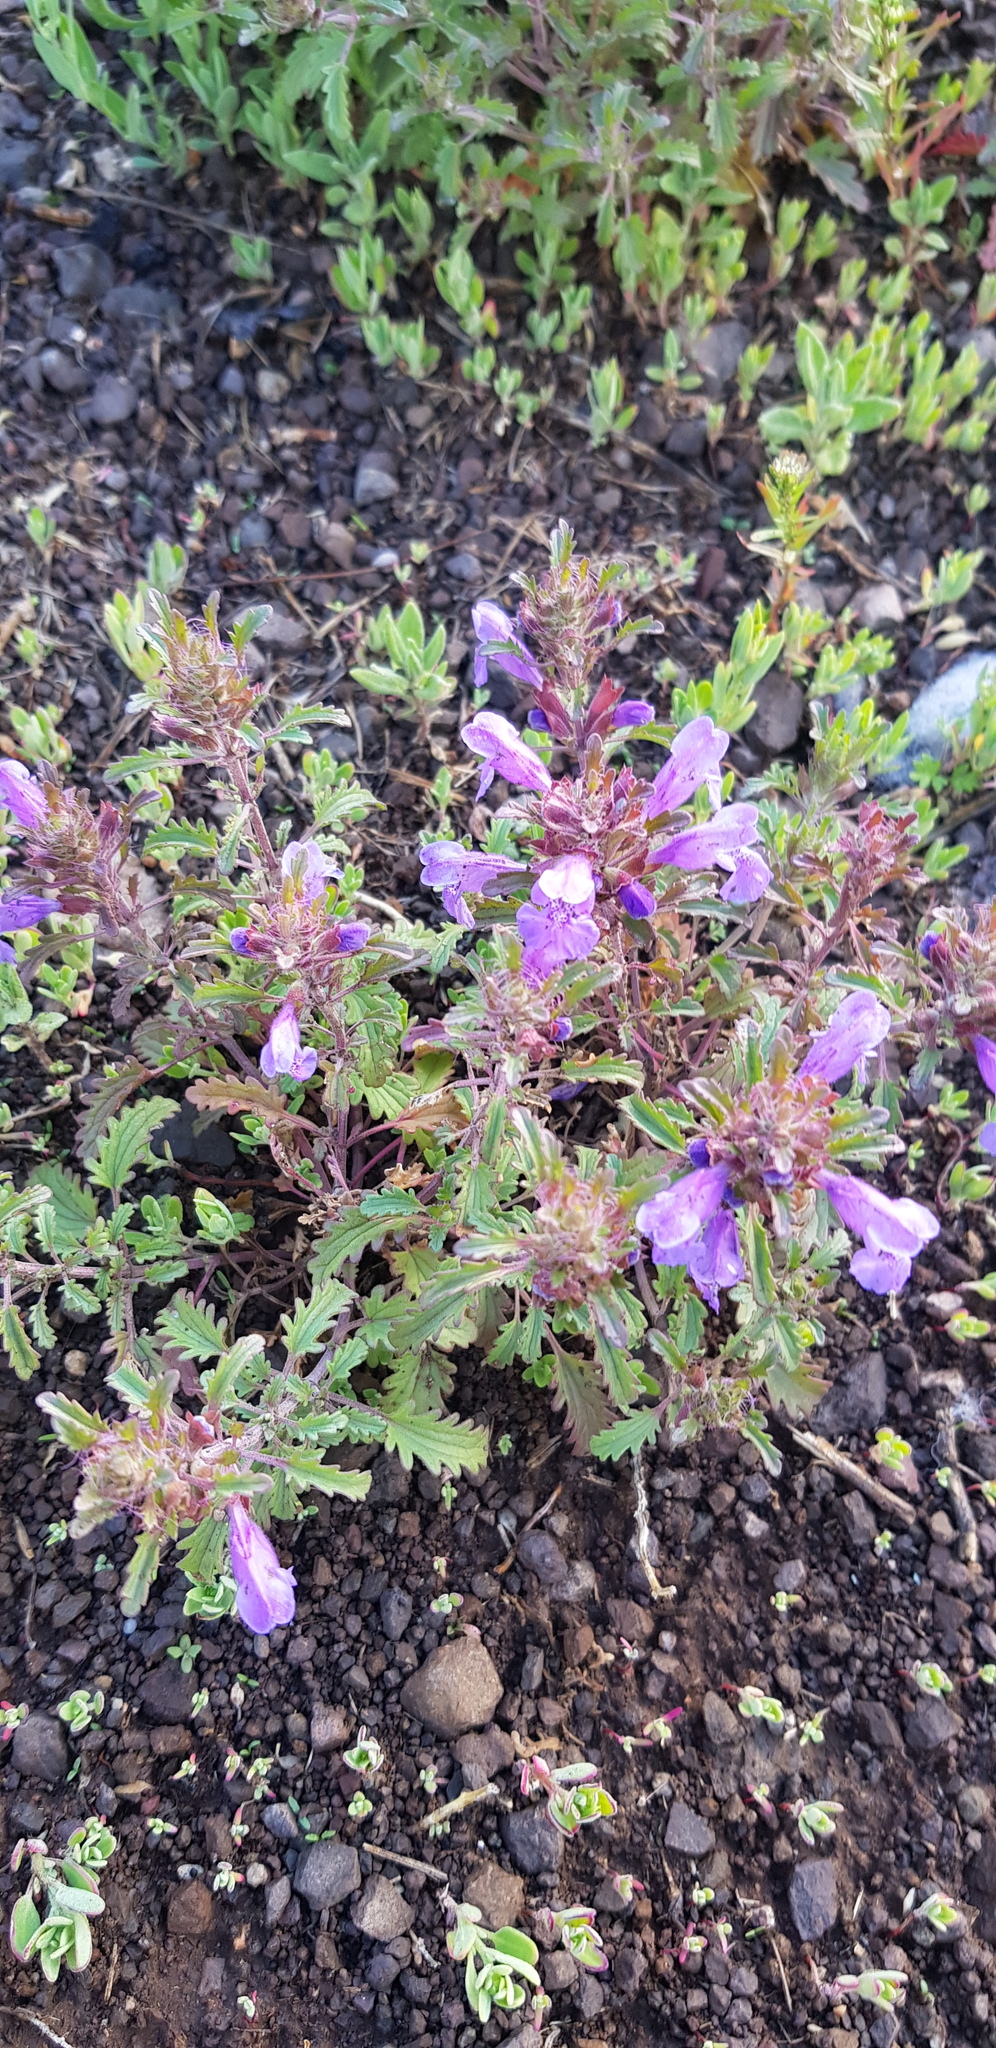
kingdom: Plantae
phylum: Tracheophyta
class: Magnoliopsida
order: Lamiales
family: Lamiaceae
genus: Dracocephalum
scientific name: Dracocephalum foetidum
